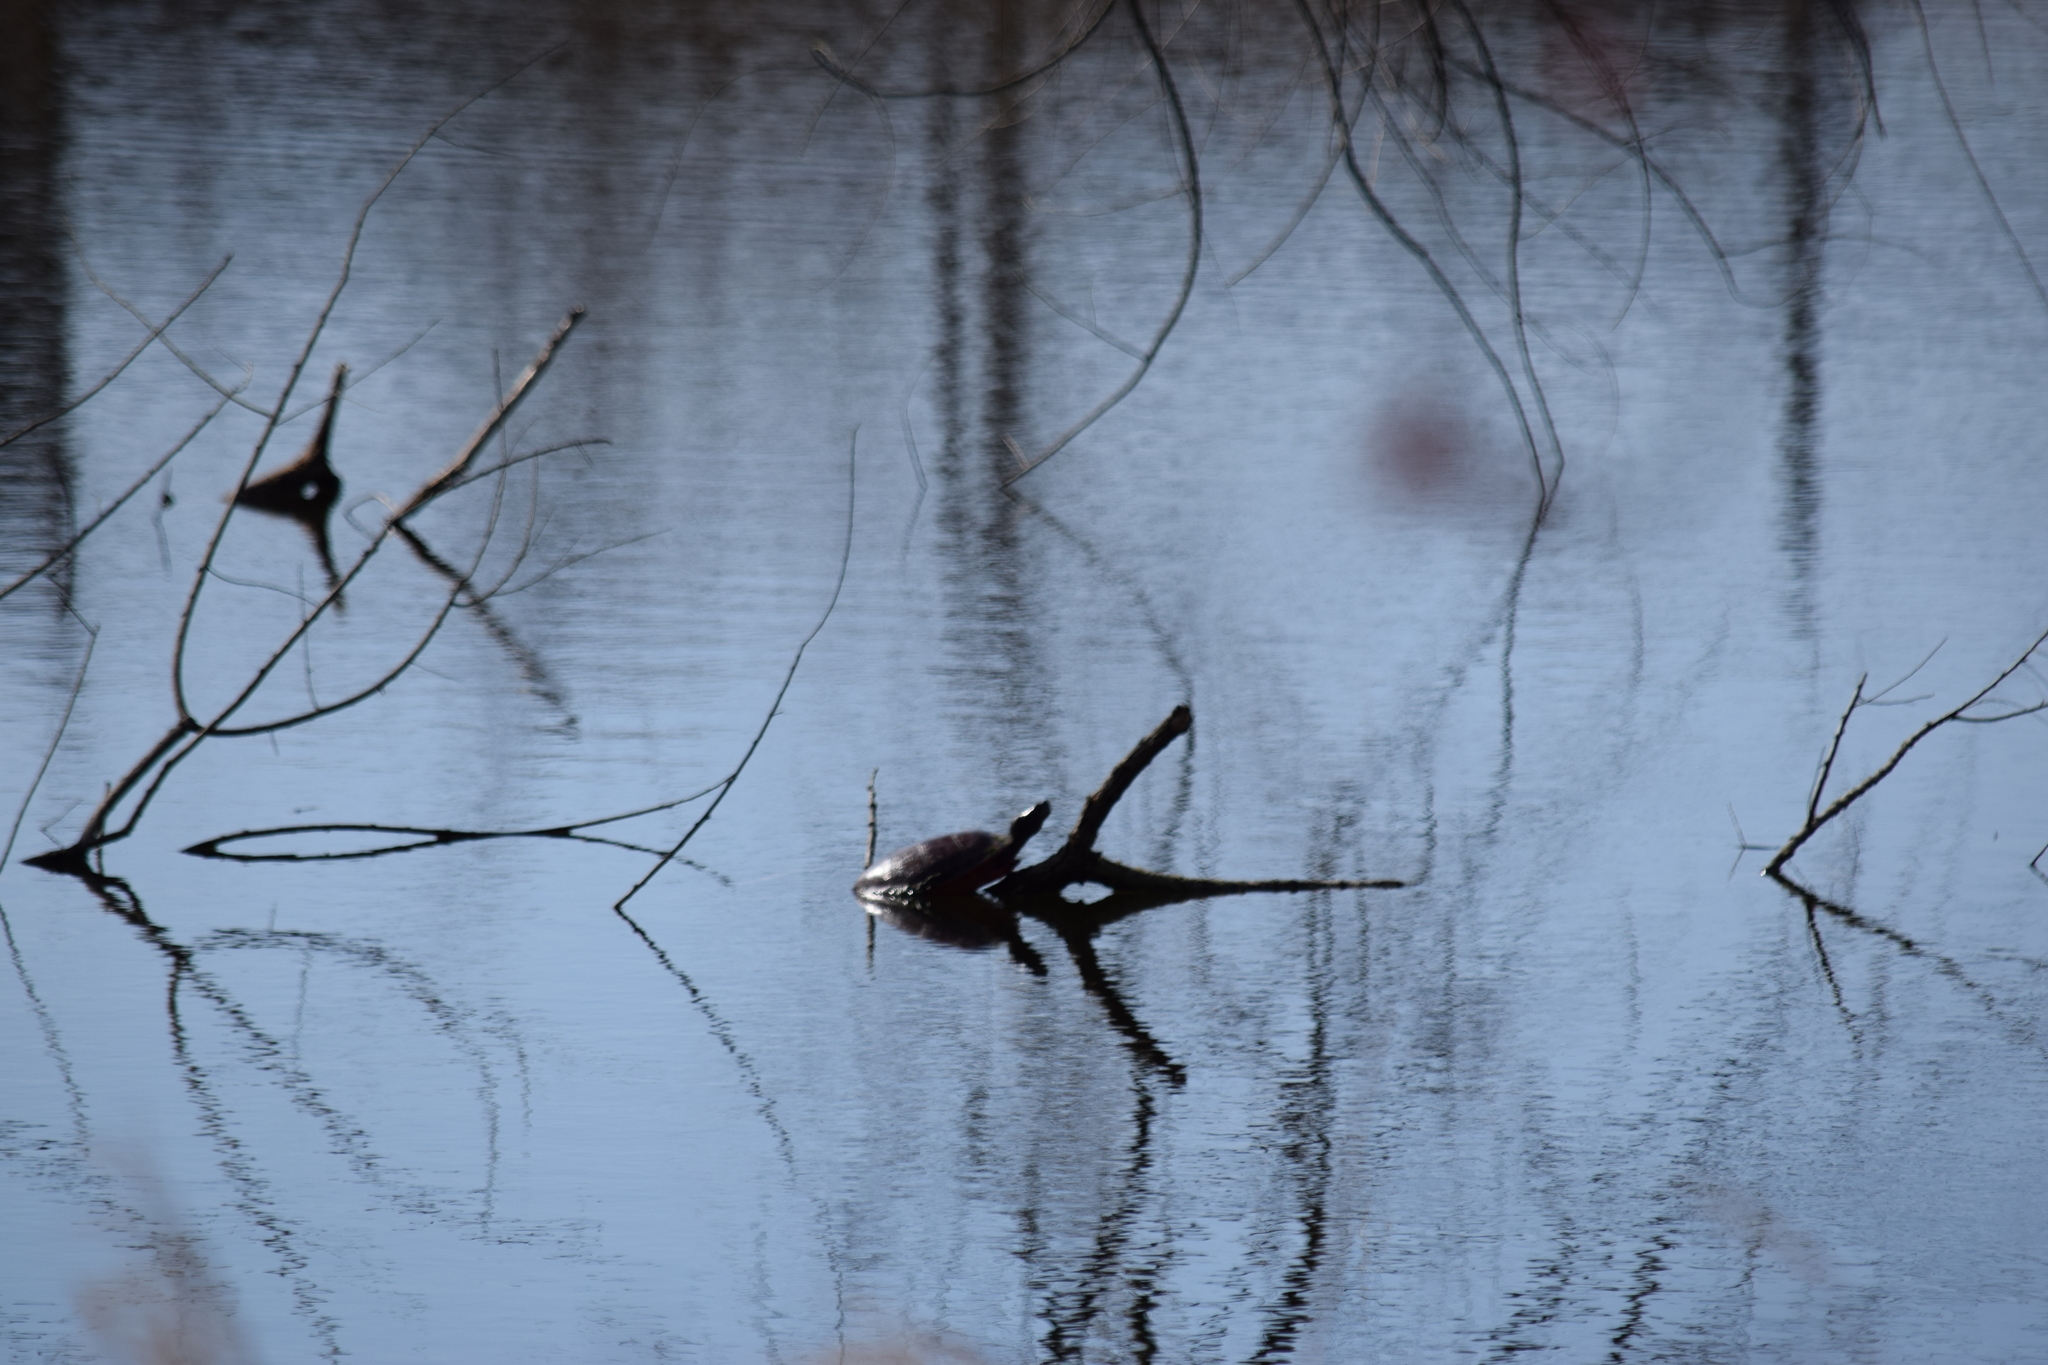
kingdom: Animalia
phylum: Chordata
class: Testudines
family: Emydidae
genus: Pseudemys
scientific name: Pseudemys rubriventris
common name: American red-bellied turtle
